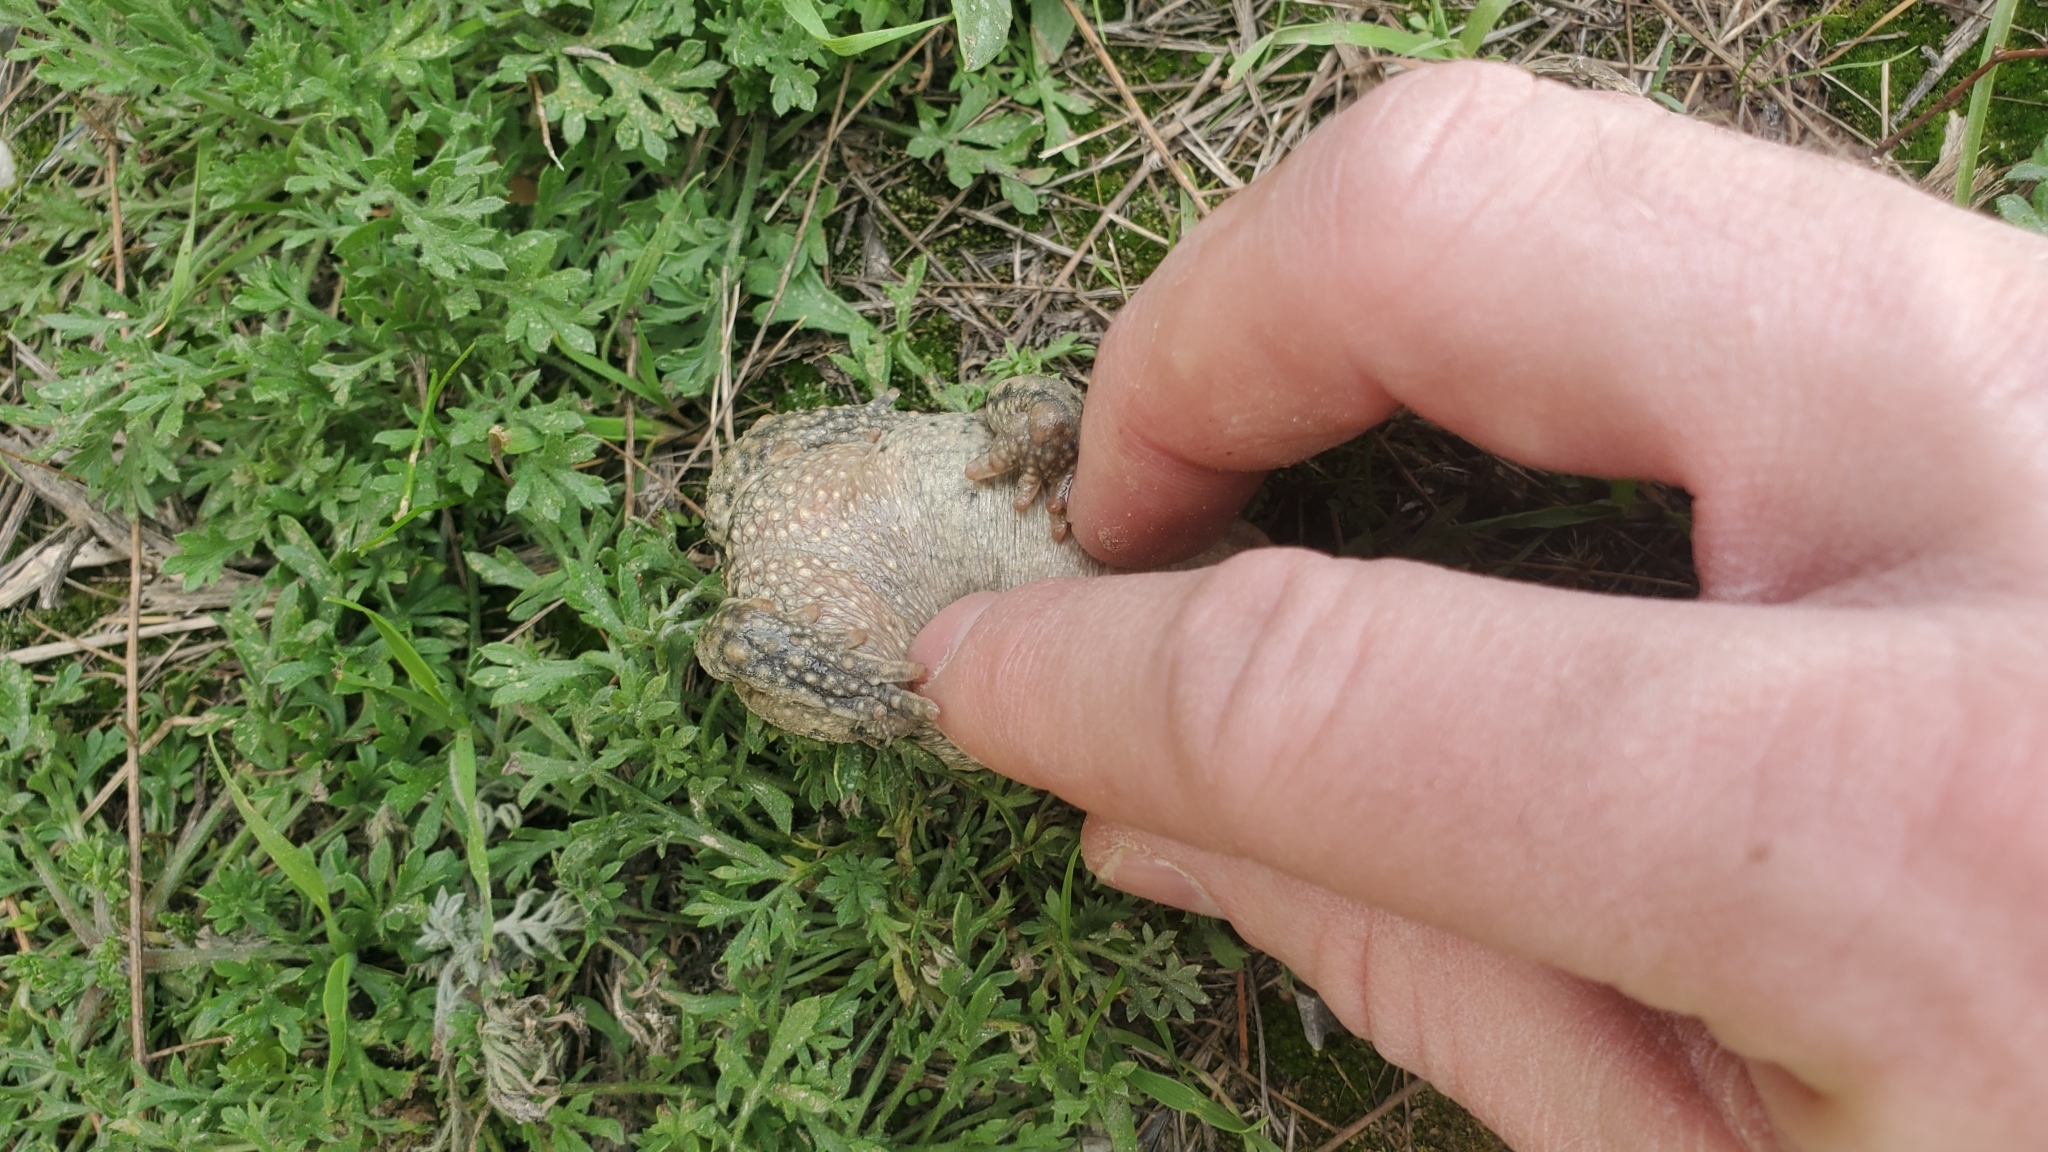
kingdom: Animalia
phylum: Chordata
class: Amphibia
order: Anura
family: Bufonidae
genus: Bufotes
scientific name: Bufotes pseudoraddei
